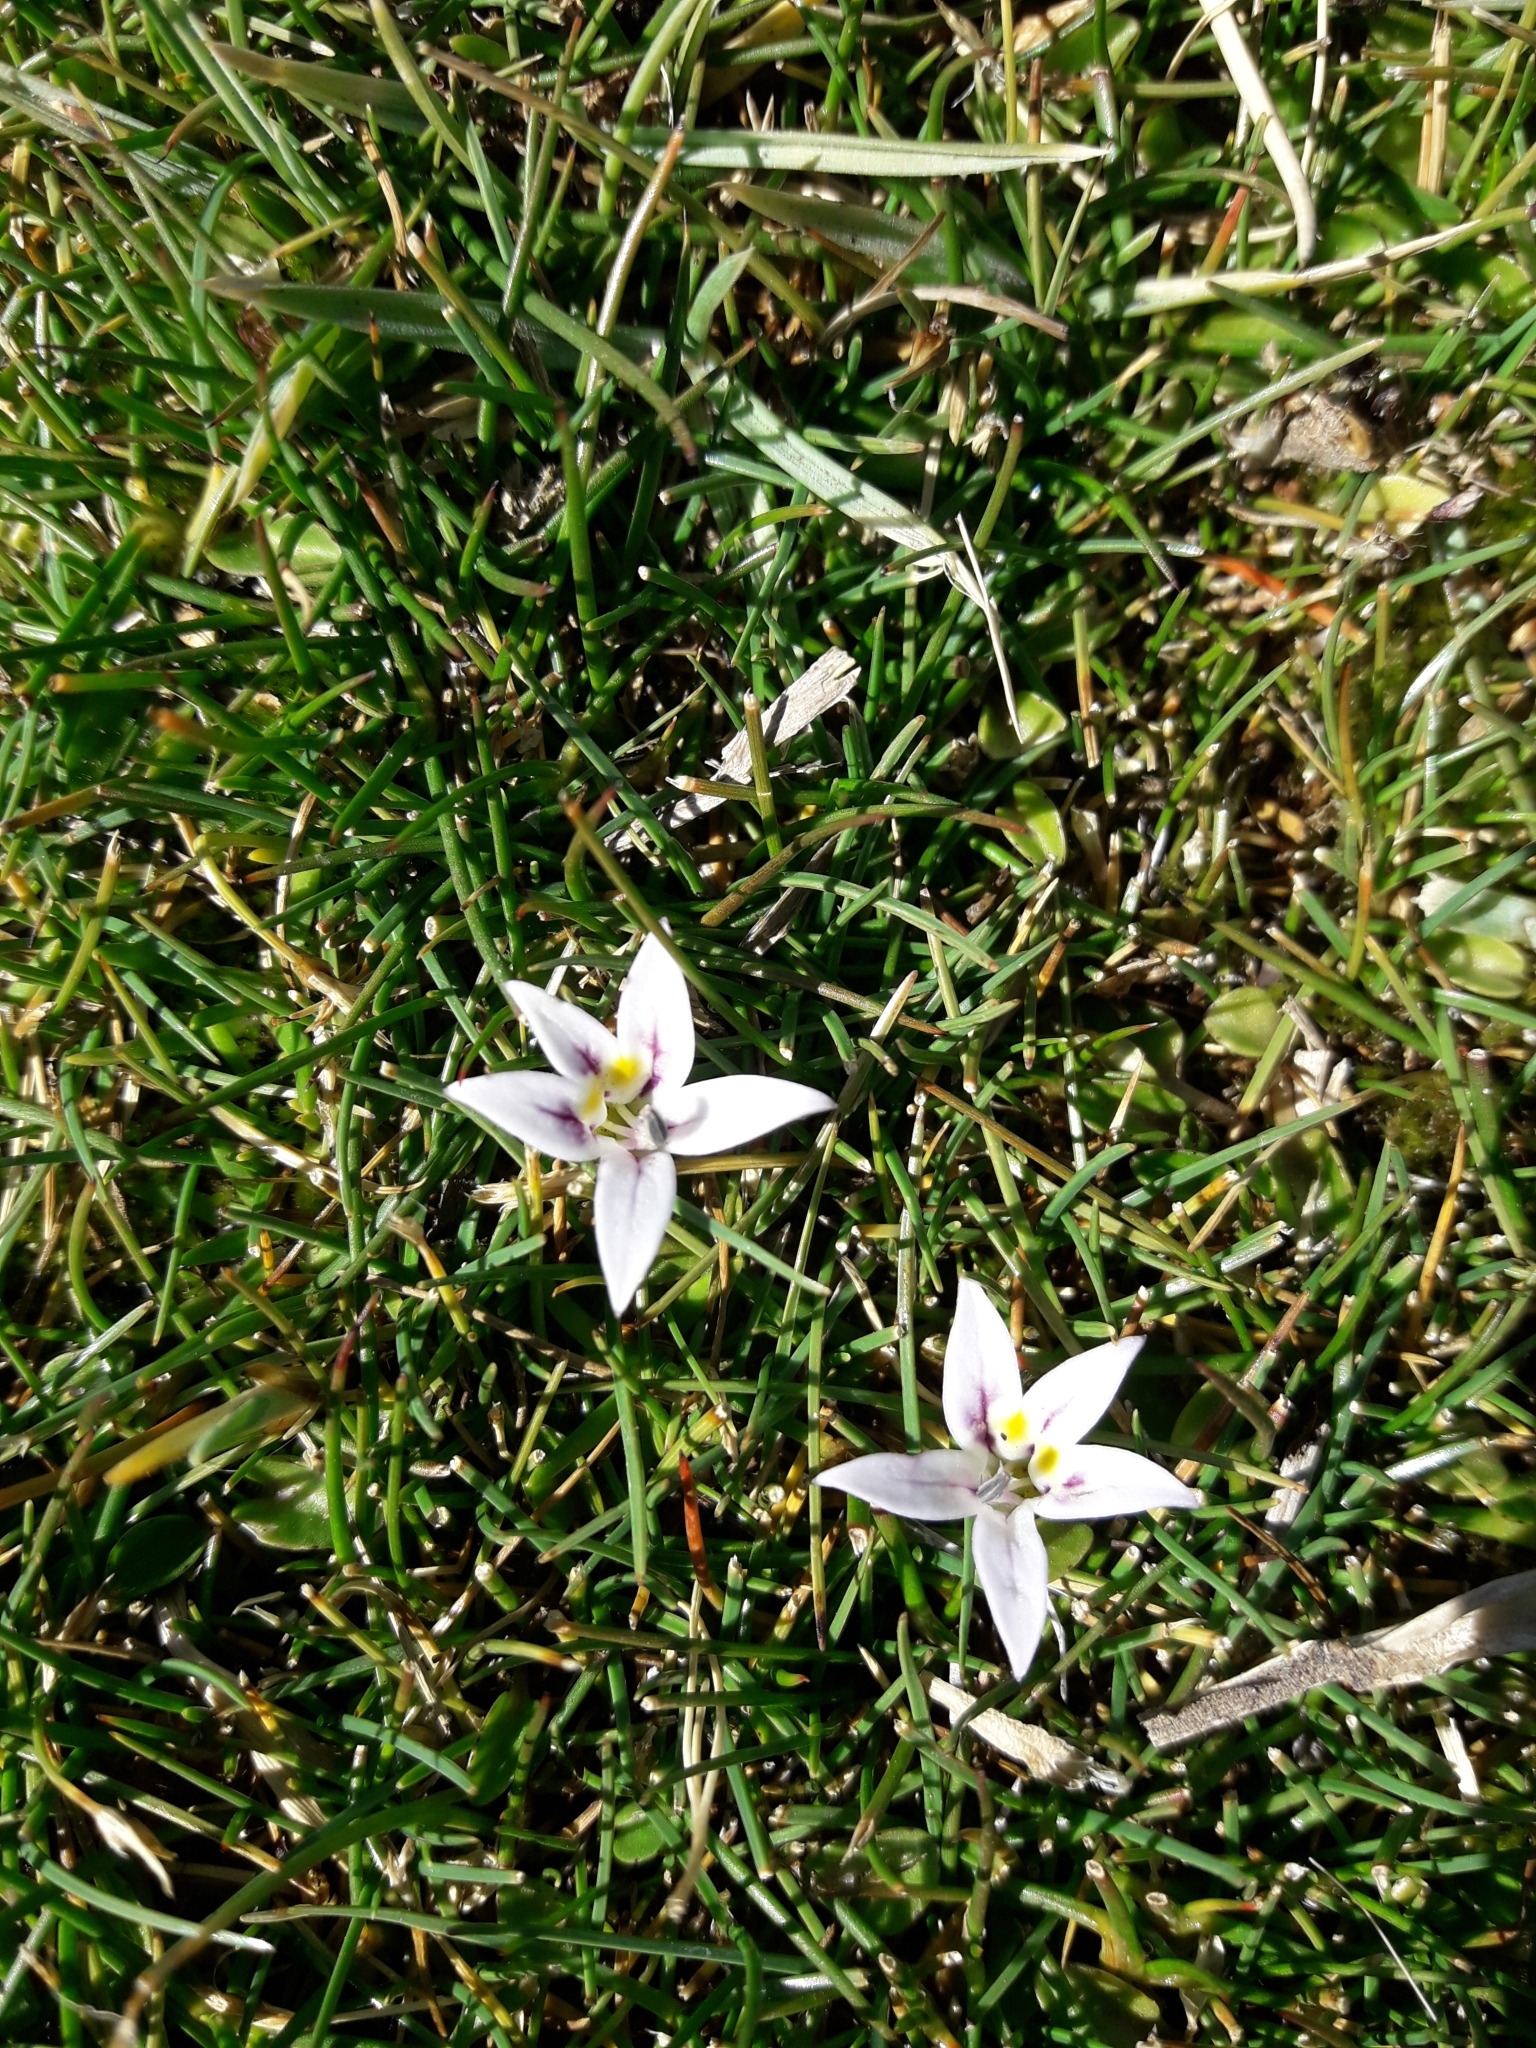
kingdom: Plantae
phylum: Tracheophyta
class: Magnoliopsida
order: Asterales
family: Campanulaceae
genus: Lobelia
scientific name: Lobelia oligophylla
